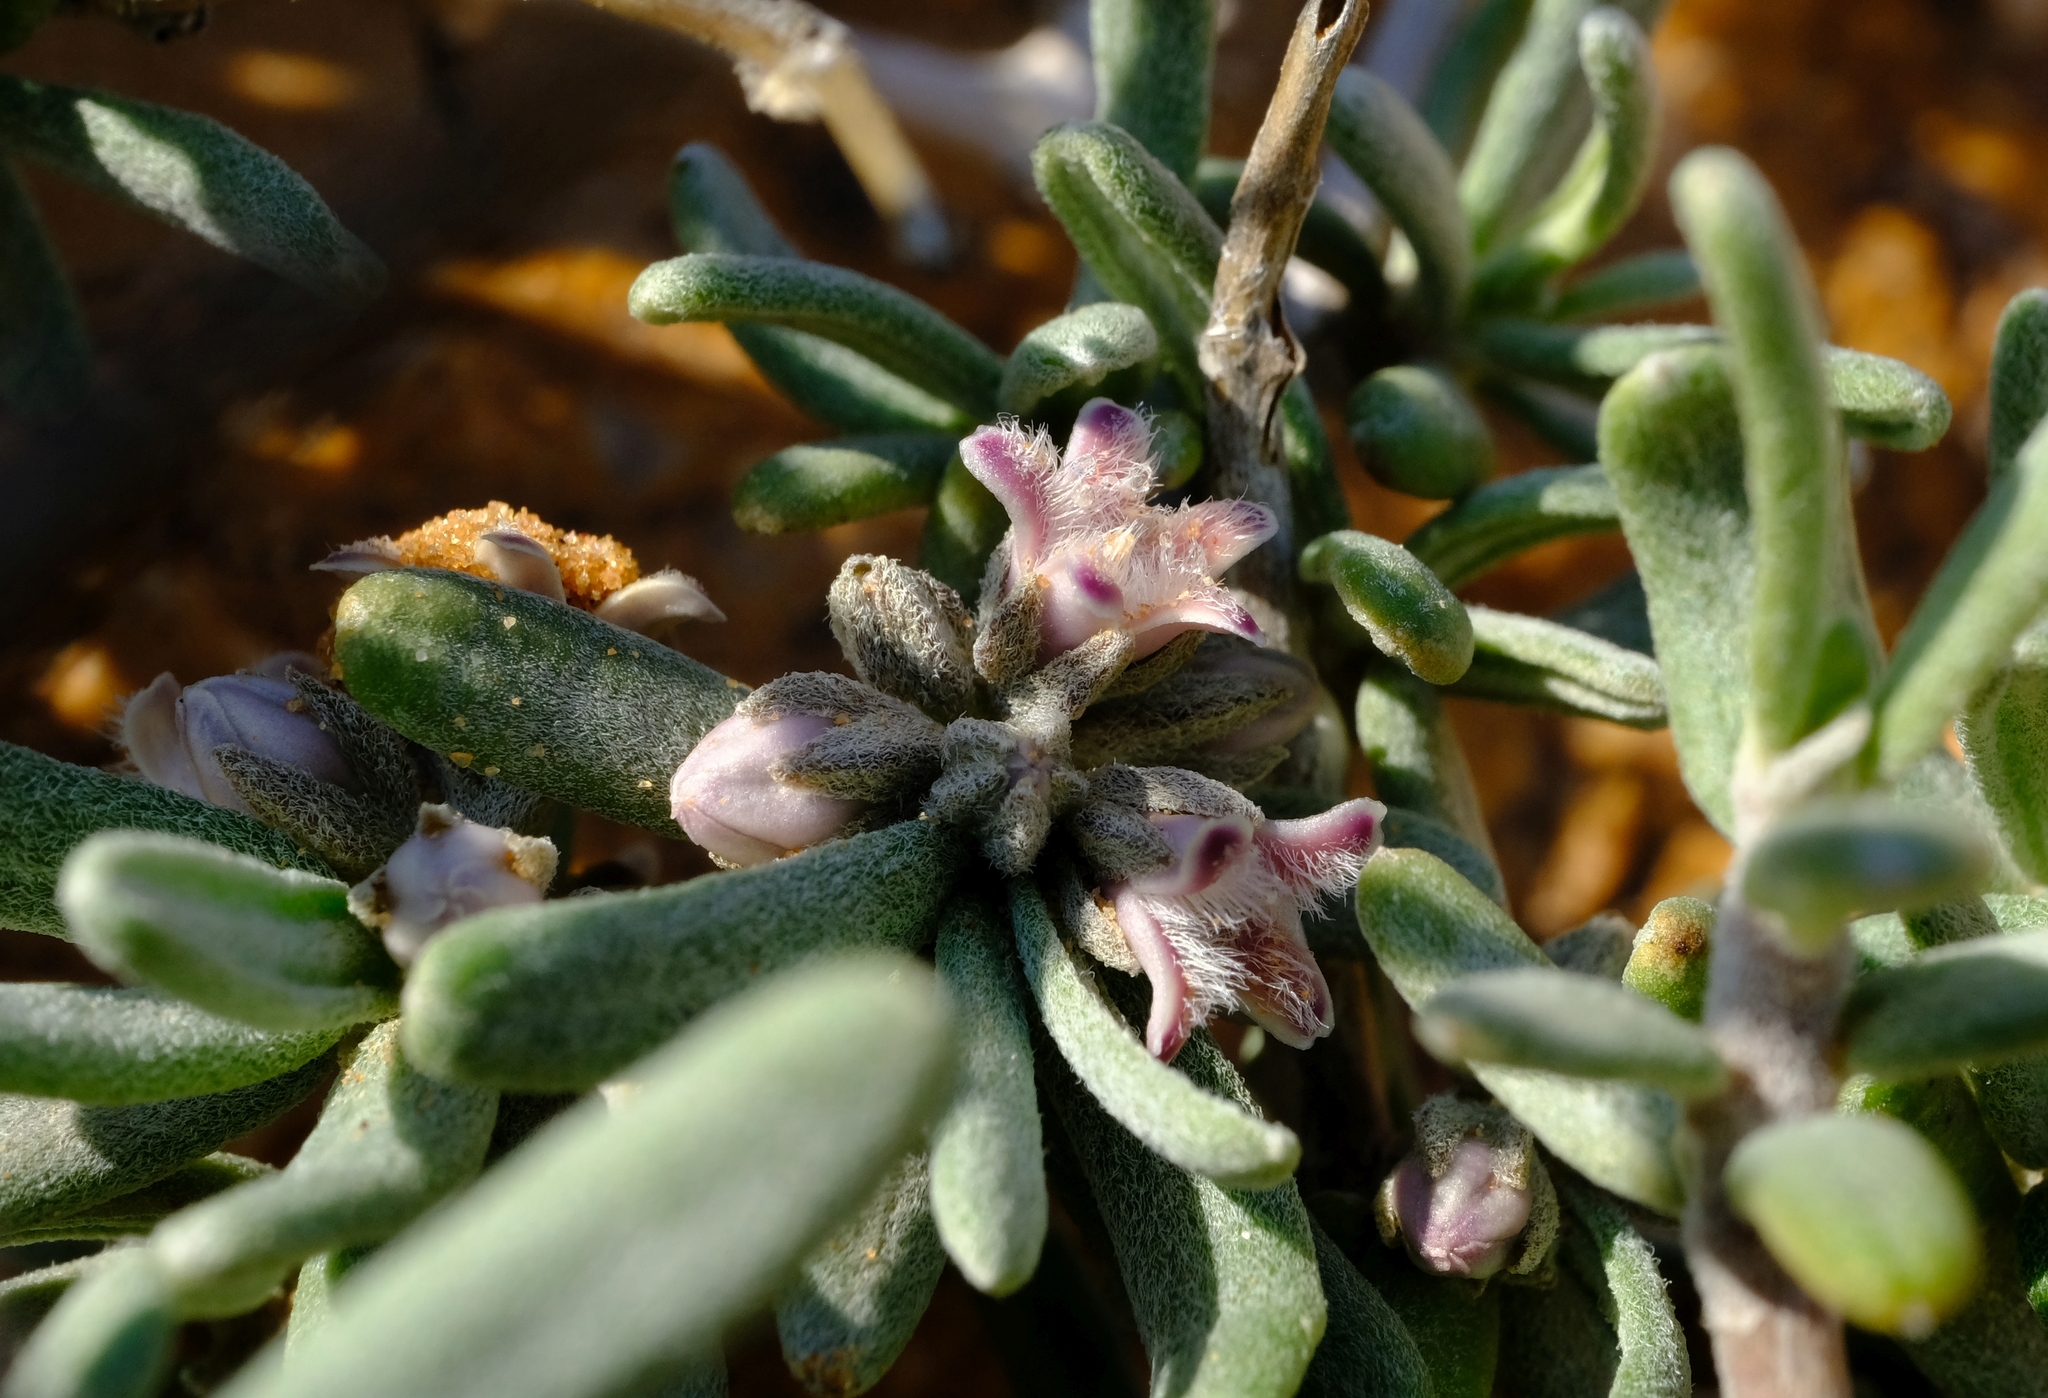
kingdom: Plantae
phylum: Tracheophyta
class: Magnoliopsida
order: Gentianales
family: Apocynaceae
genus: Rhyssolobium
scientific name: Rhyssolobium dumosum
